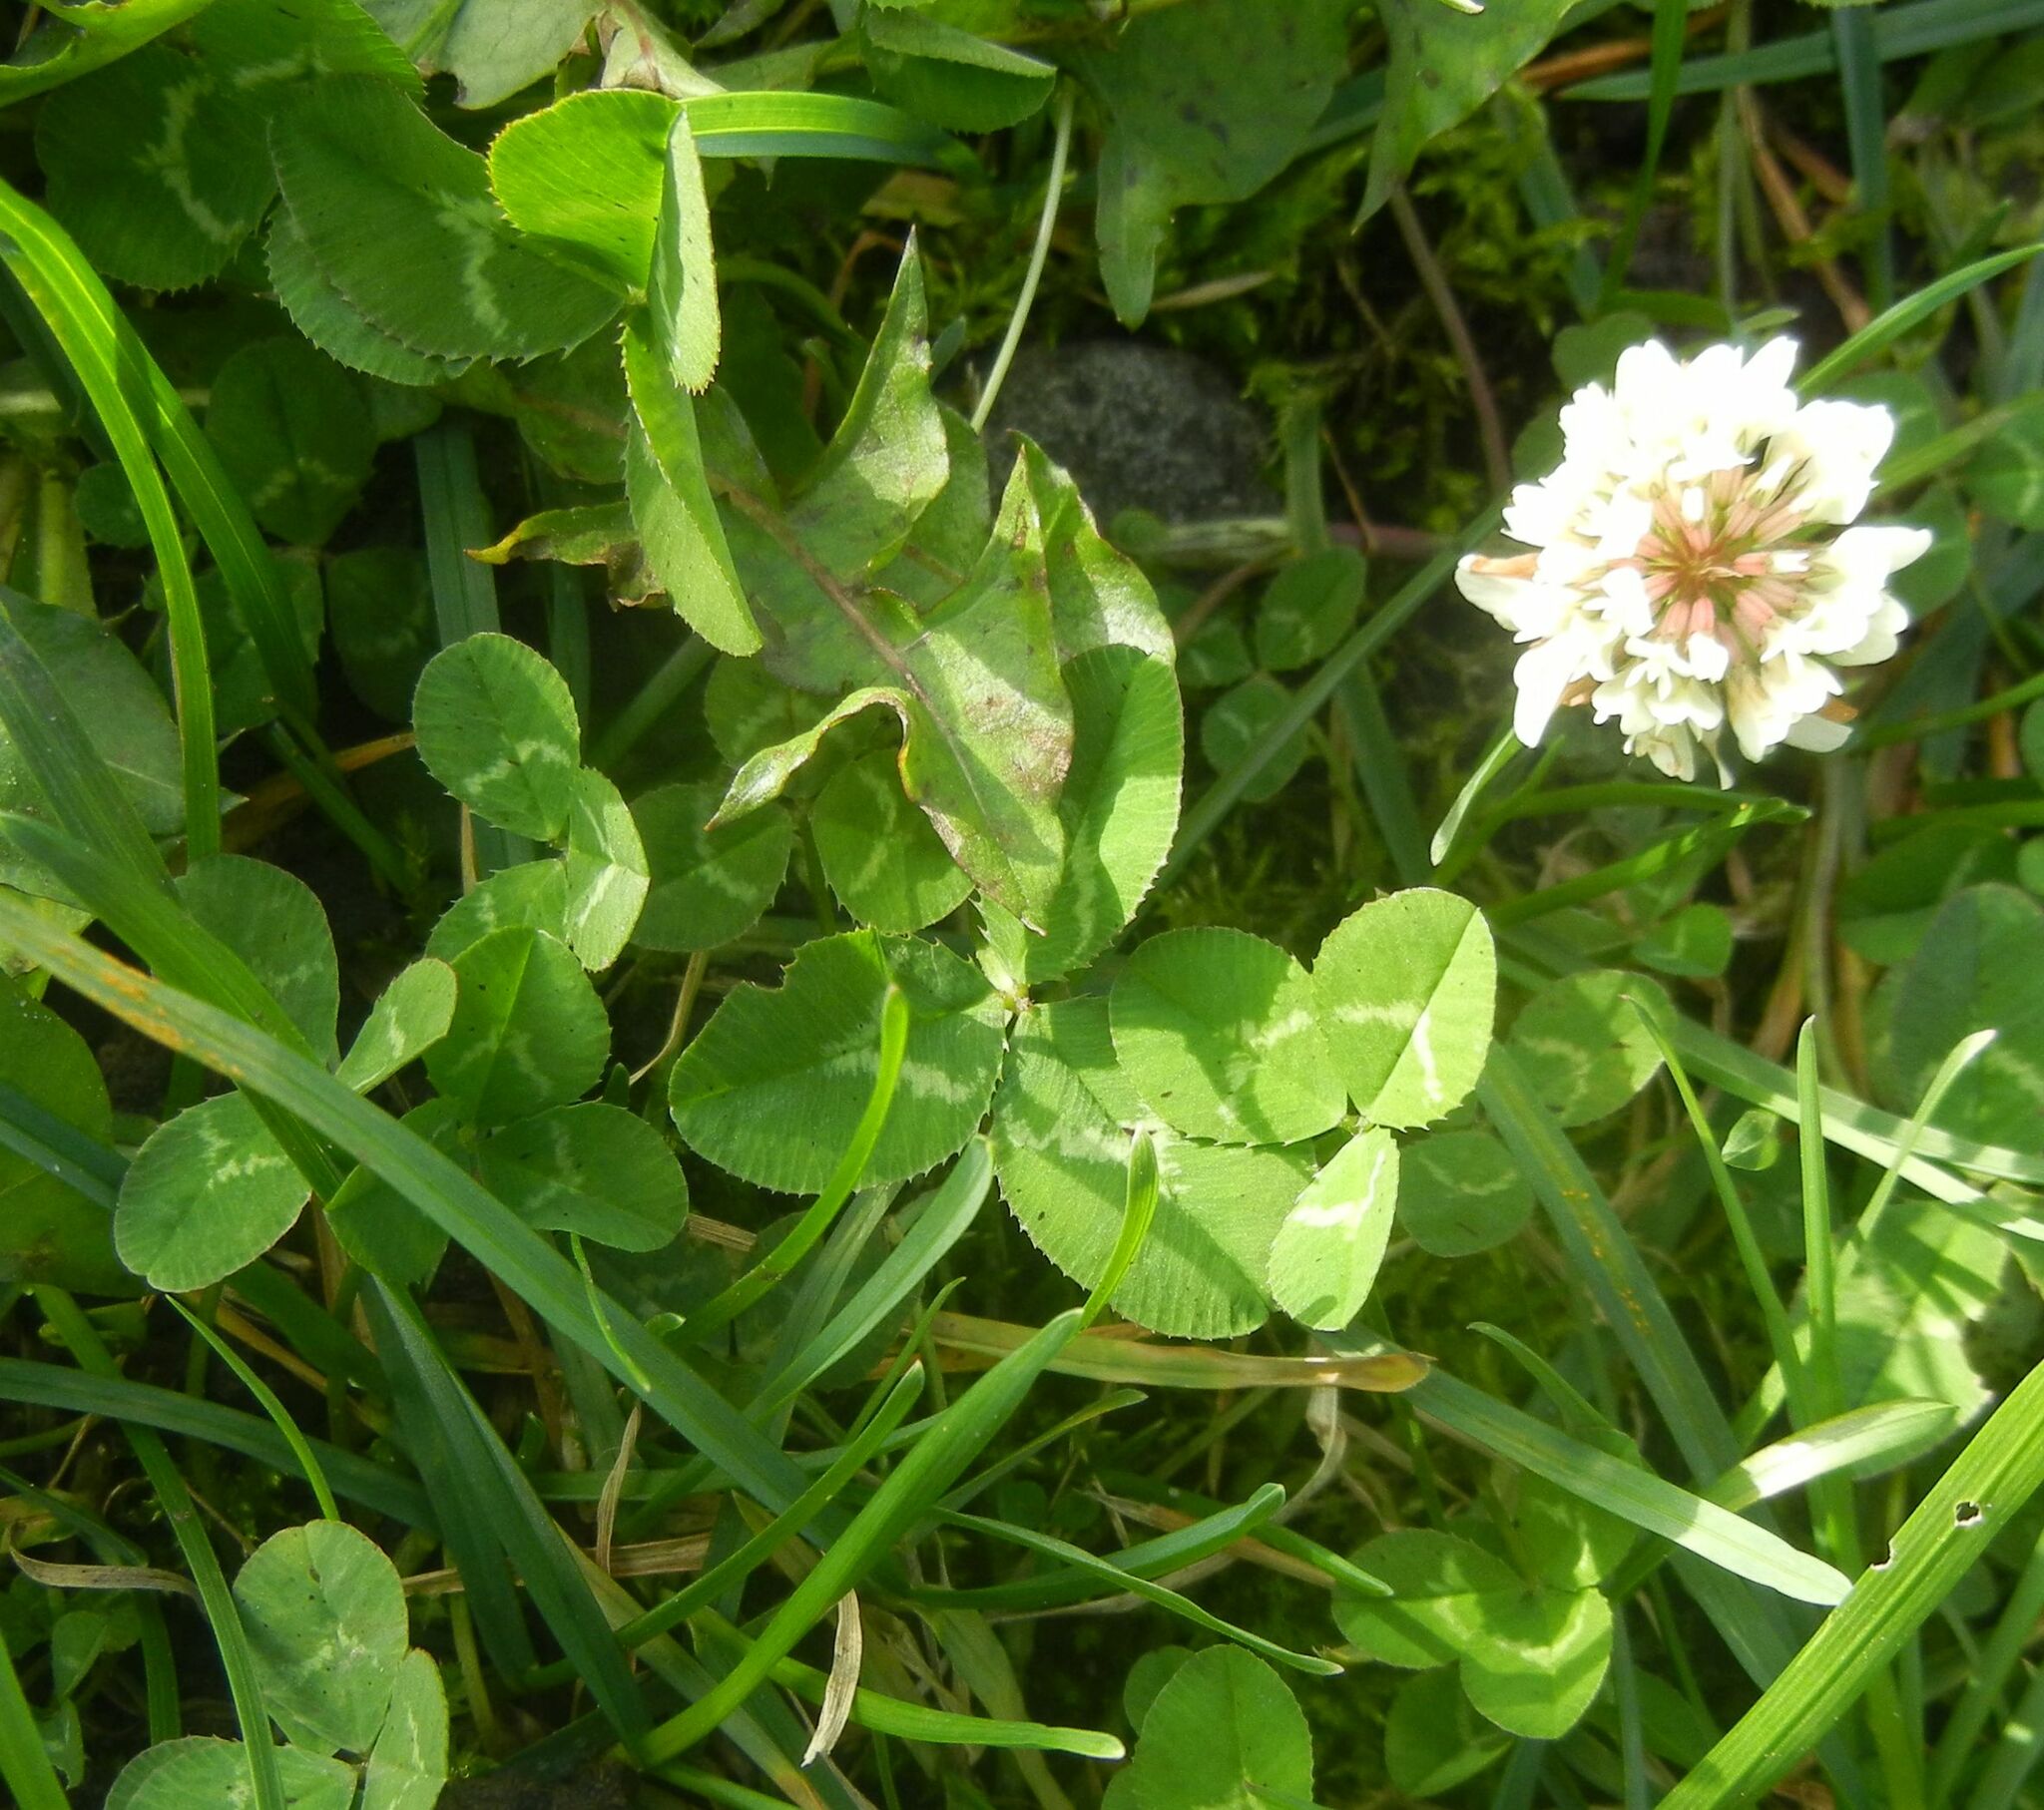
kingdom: Plantae
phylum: Tracheophyta
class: Magnoliopsida
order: Fabales
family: Fabaceae
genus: Trifolium
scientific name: Trifolium repens
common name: White clover
